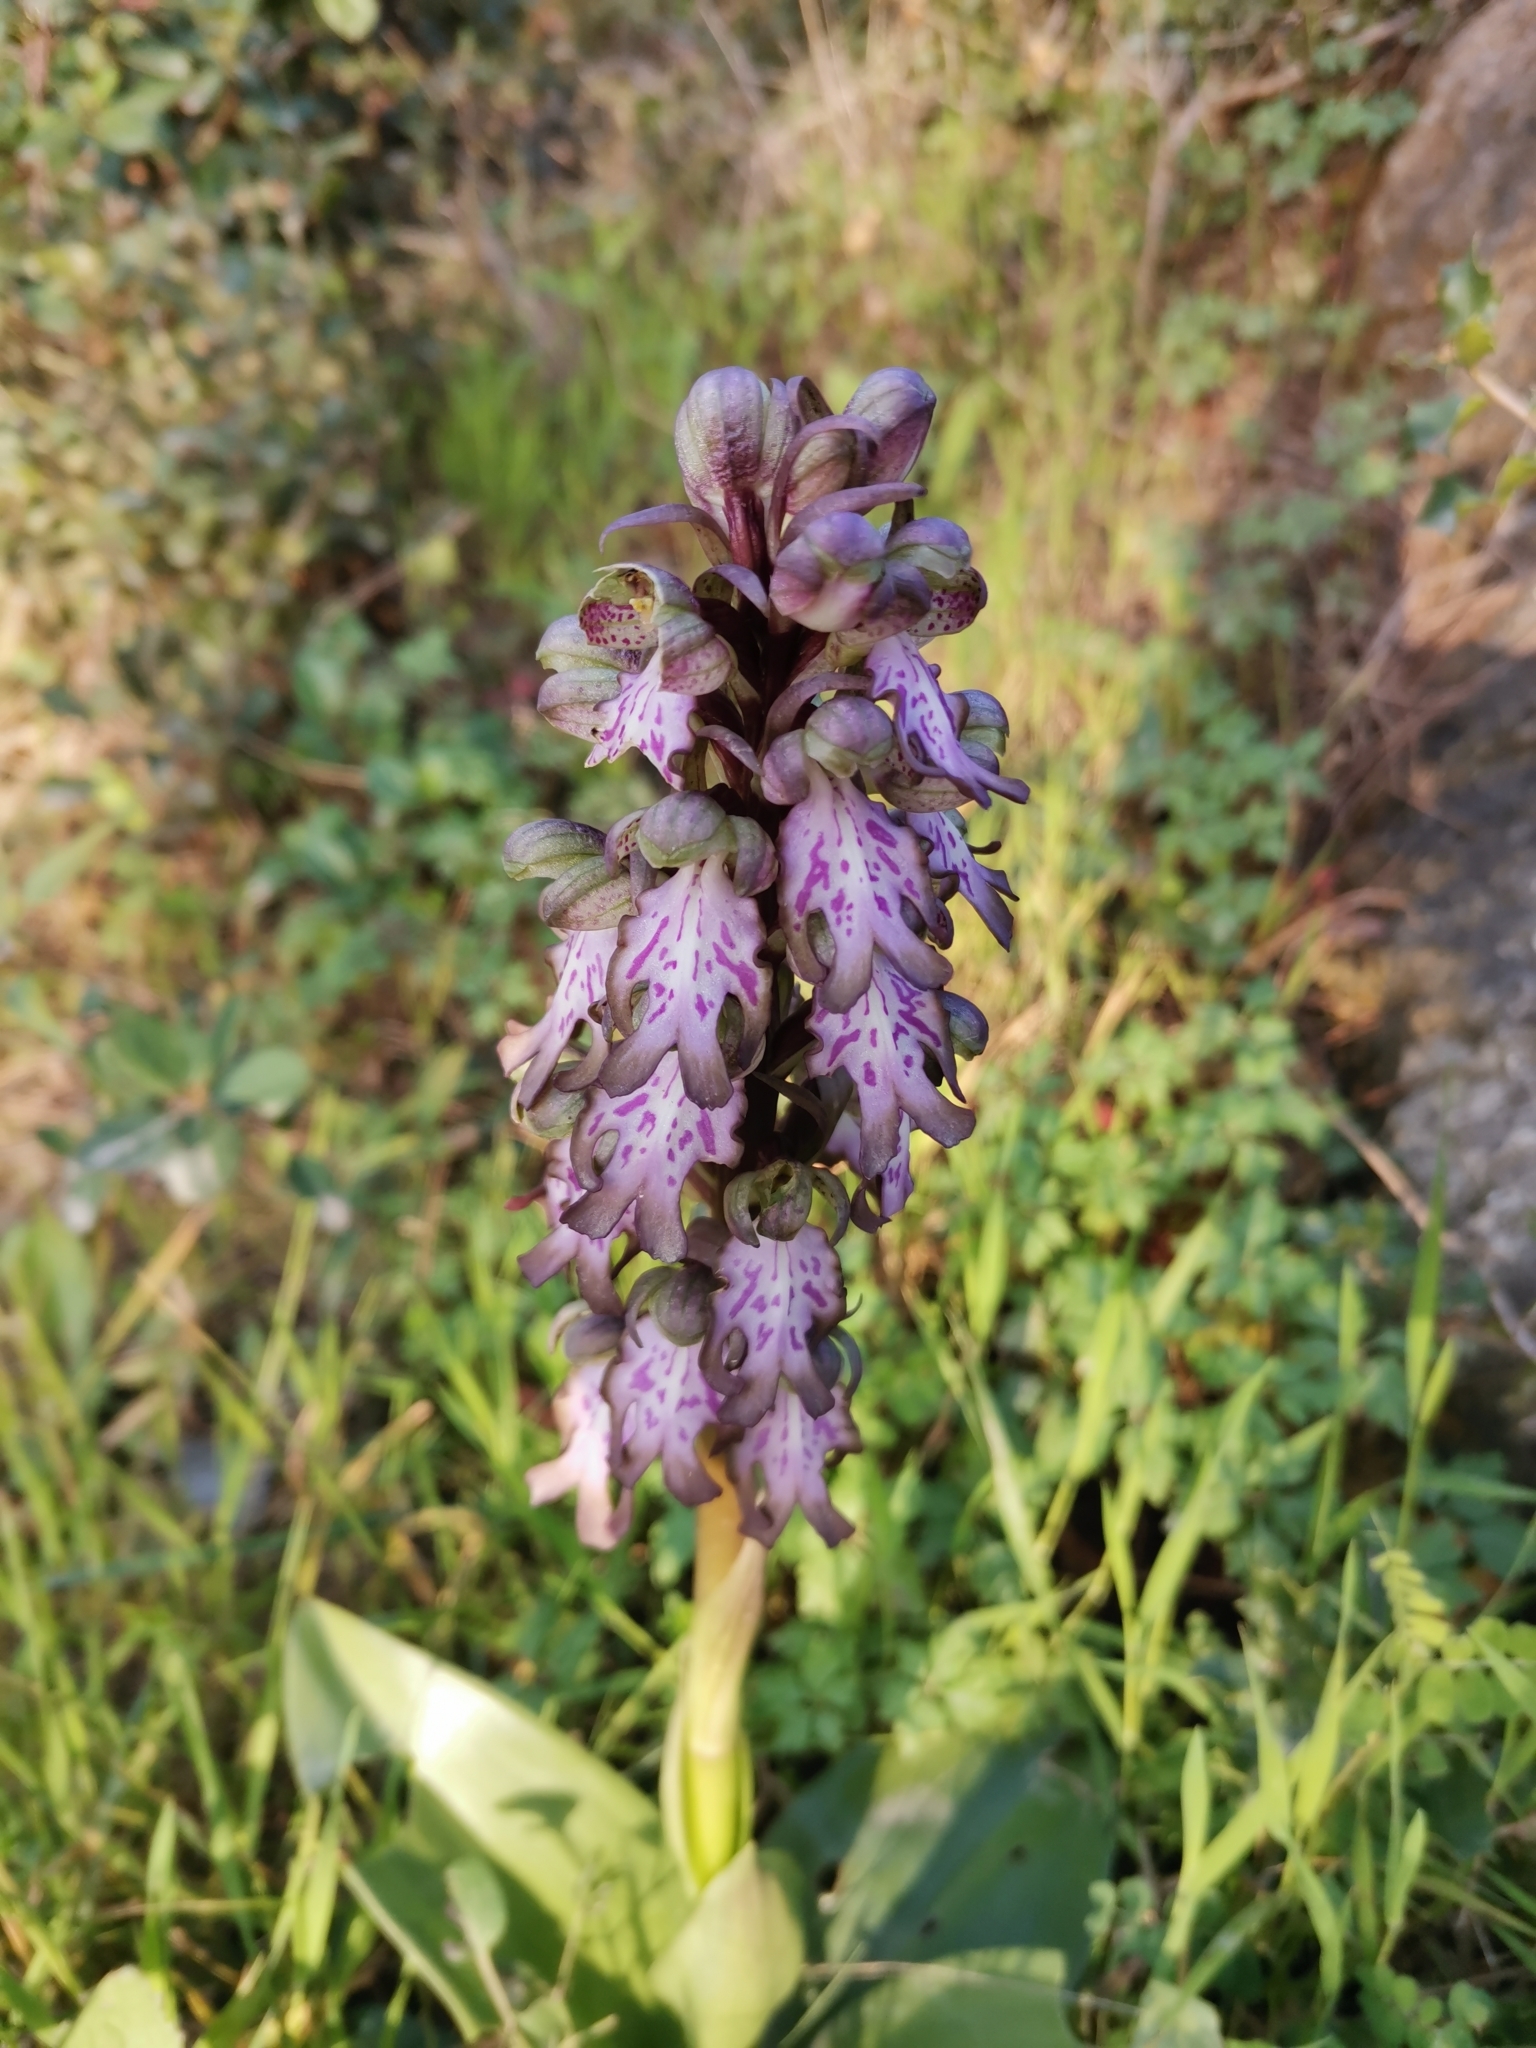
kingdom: Plantae
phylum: Tracheophyta
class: Liliopsida
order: Asparagales
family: Orchidaceae
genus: Himantoglossum
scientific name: Himantoglossum robertianum
